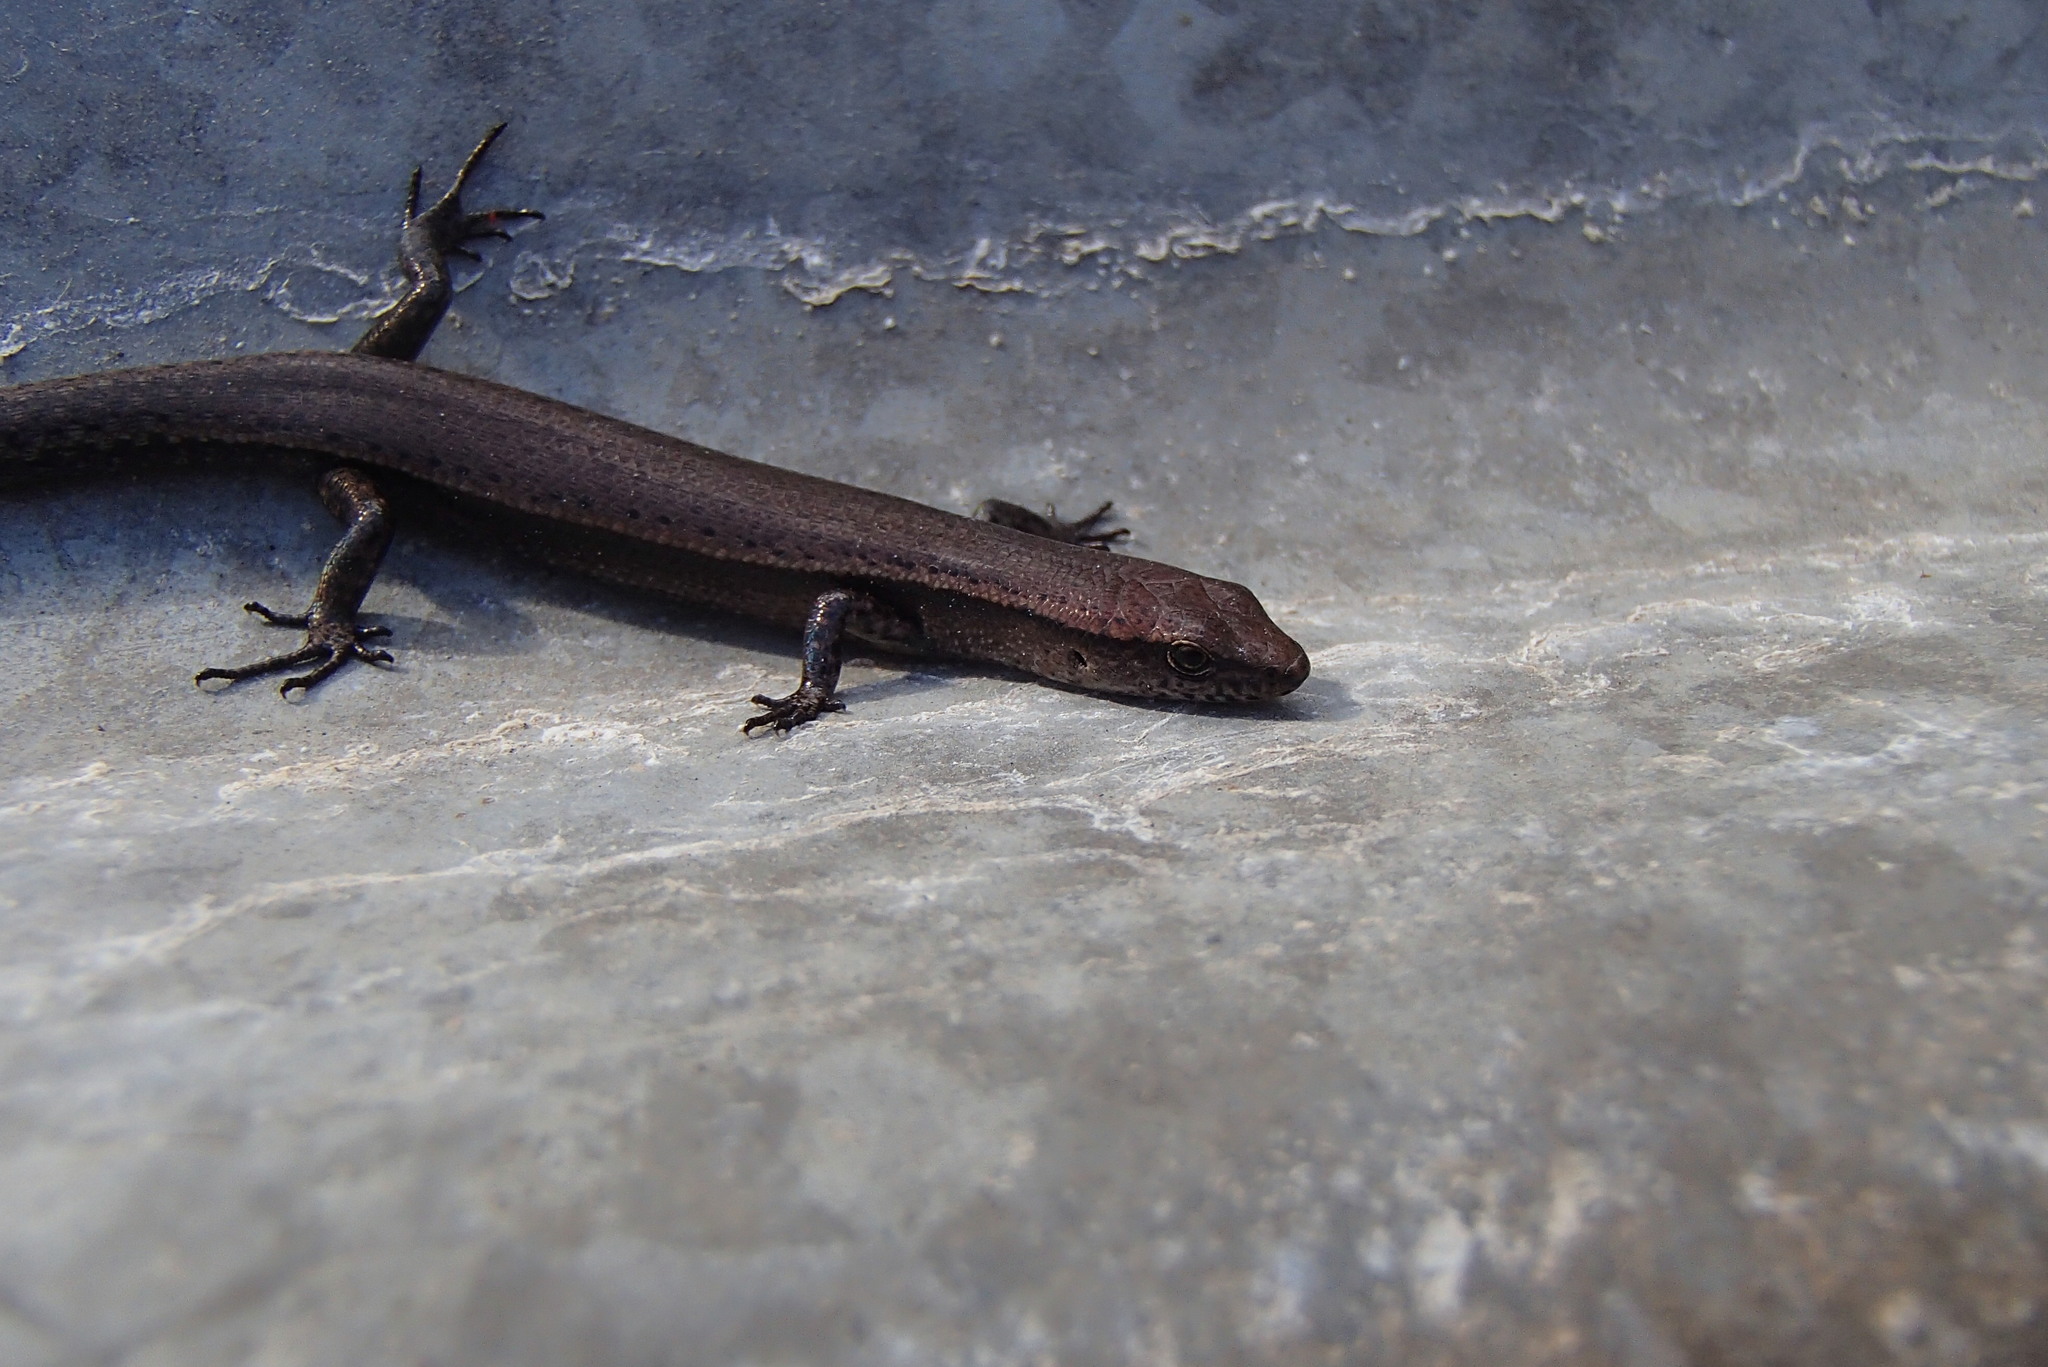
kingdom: Animalia
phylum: Chordata
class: Squamata
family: Scincidae
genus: Lampropholis
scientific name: Lampropholis delicata
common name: Plague skink
